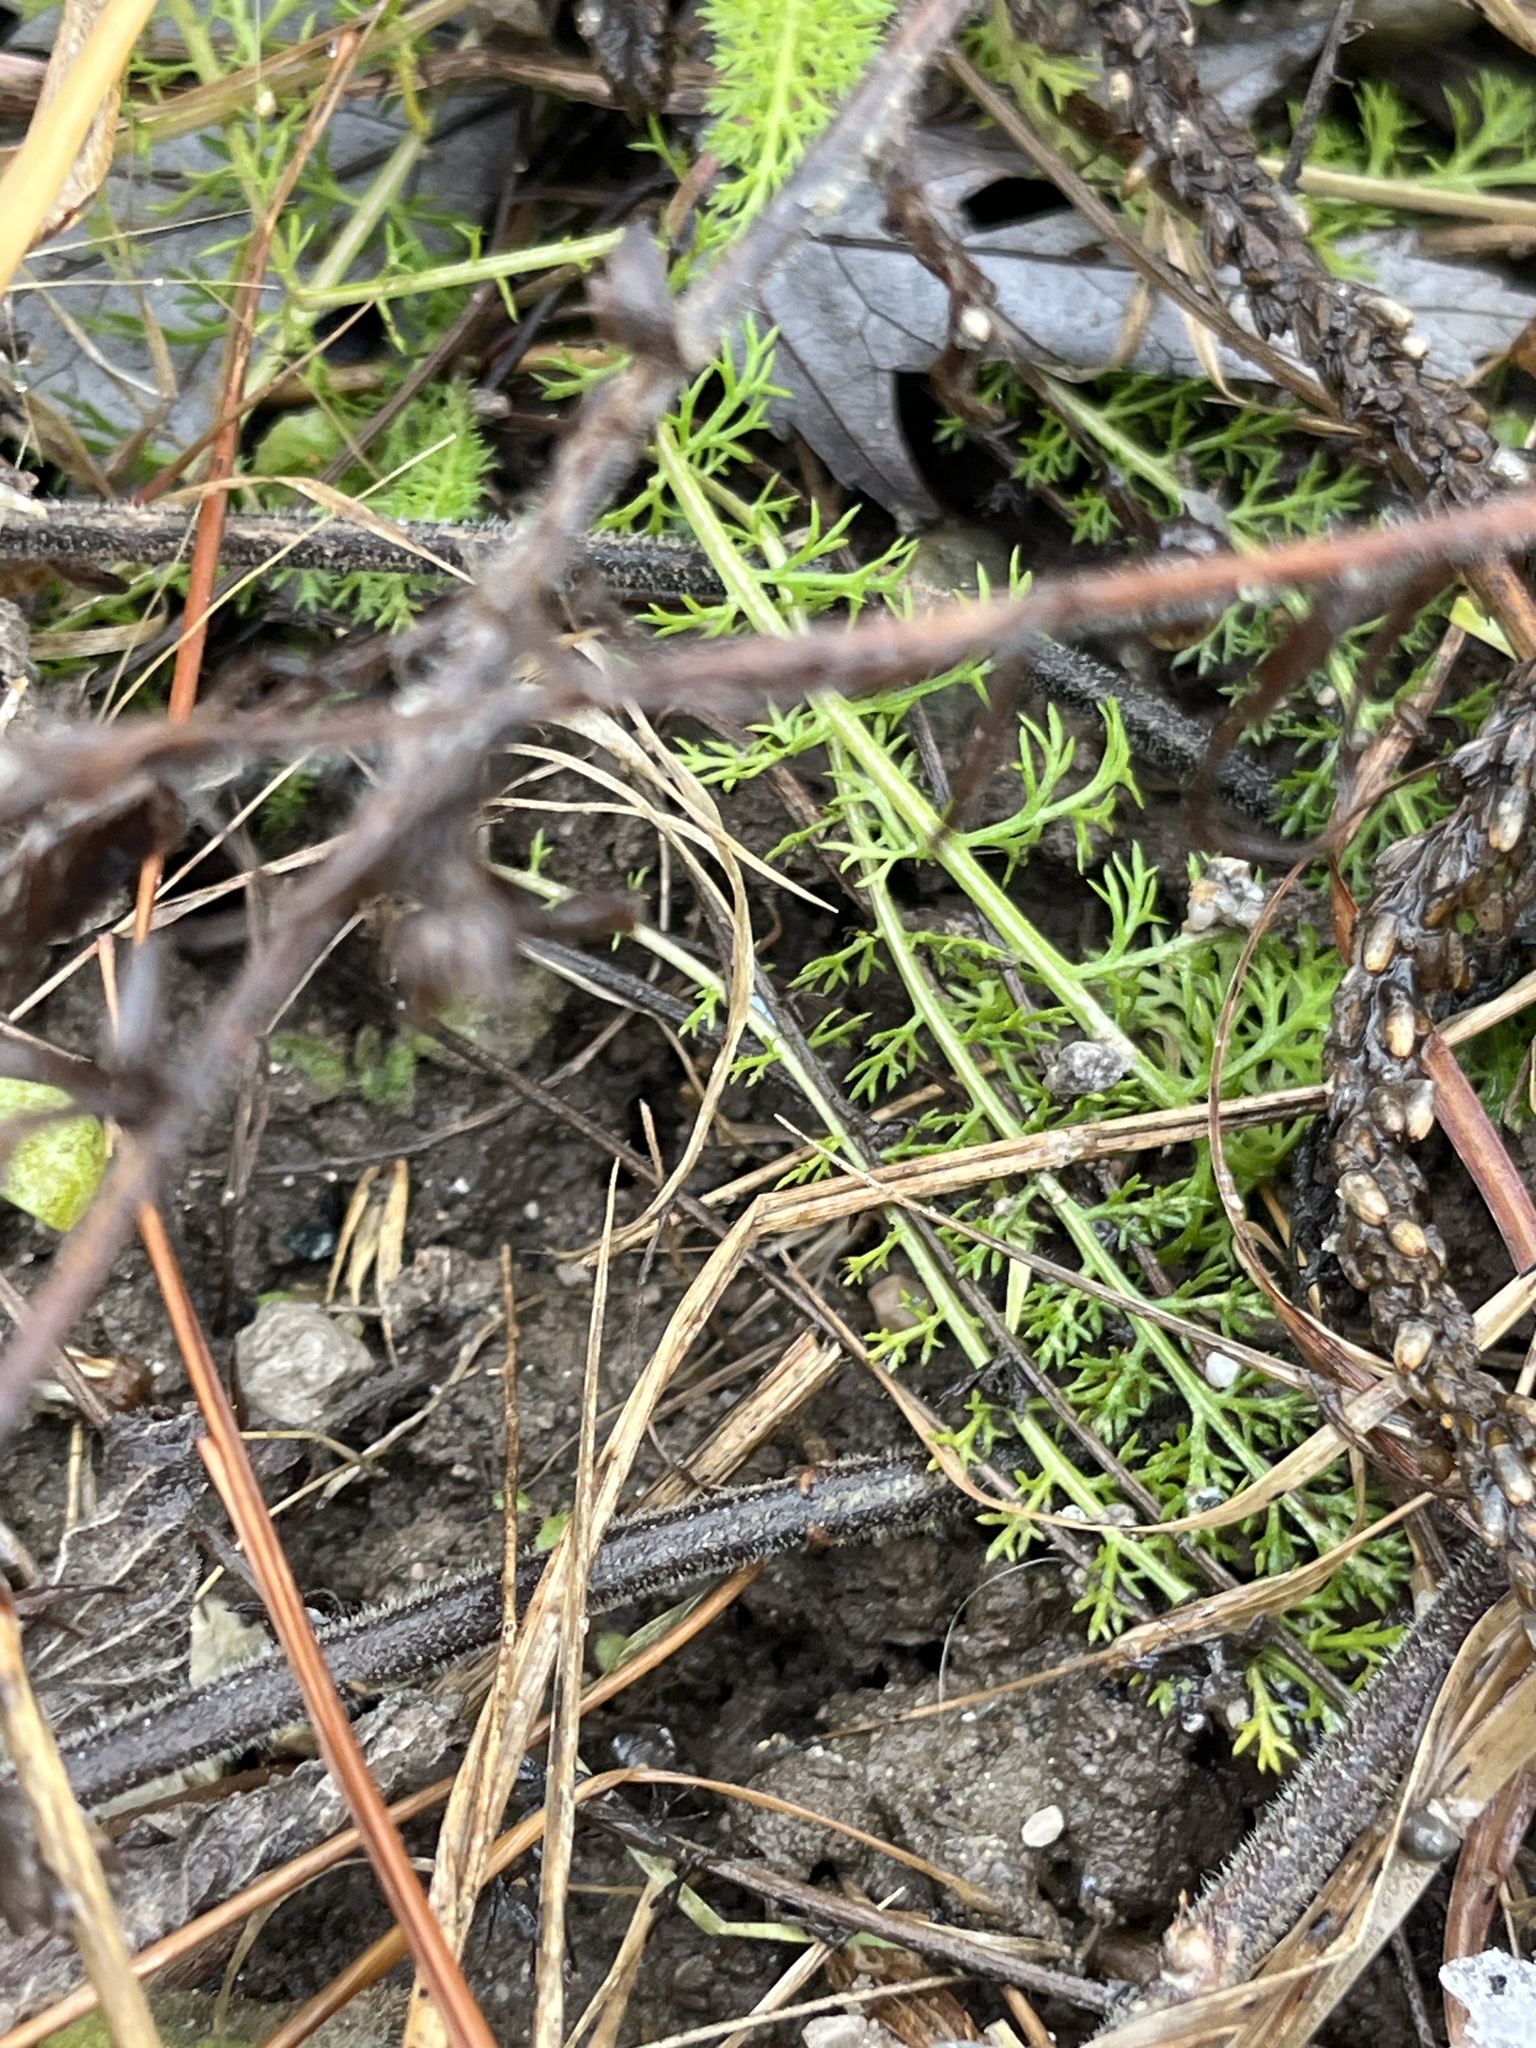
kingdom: Plantae
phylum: Tracheophyta
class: Magnoliopsida
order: Asterales
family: Asteraceae
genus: Achillea
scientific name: Achillea millefolium
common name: Yarrow
